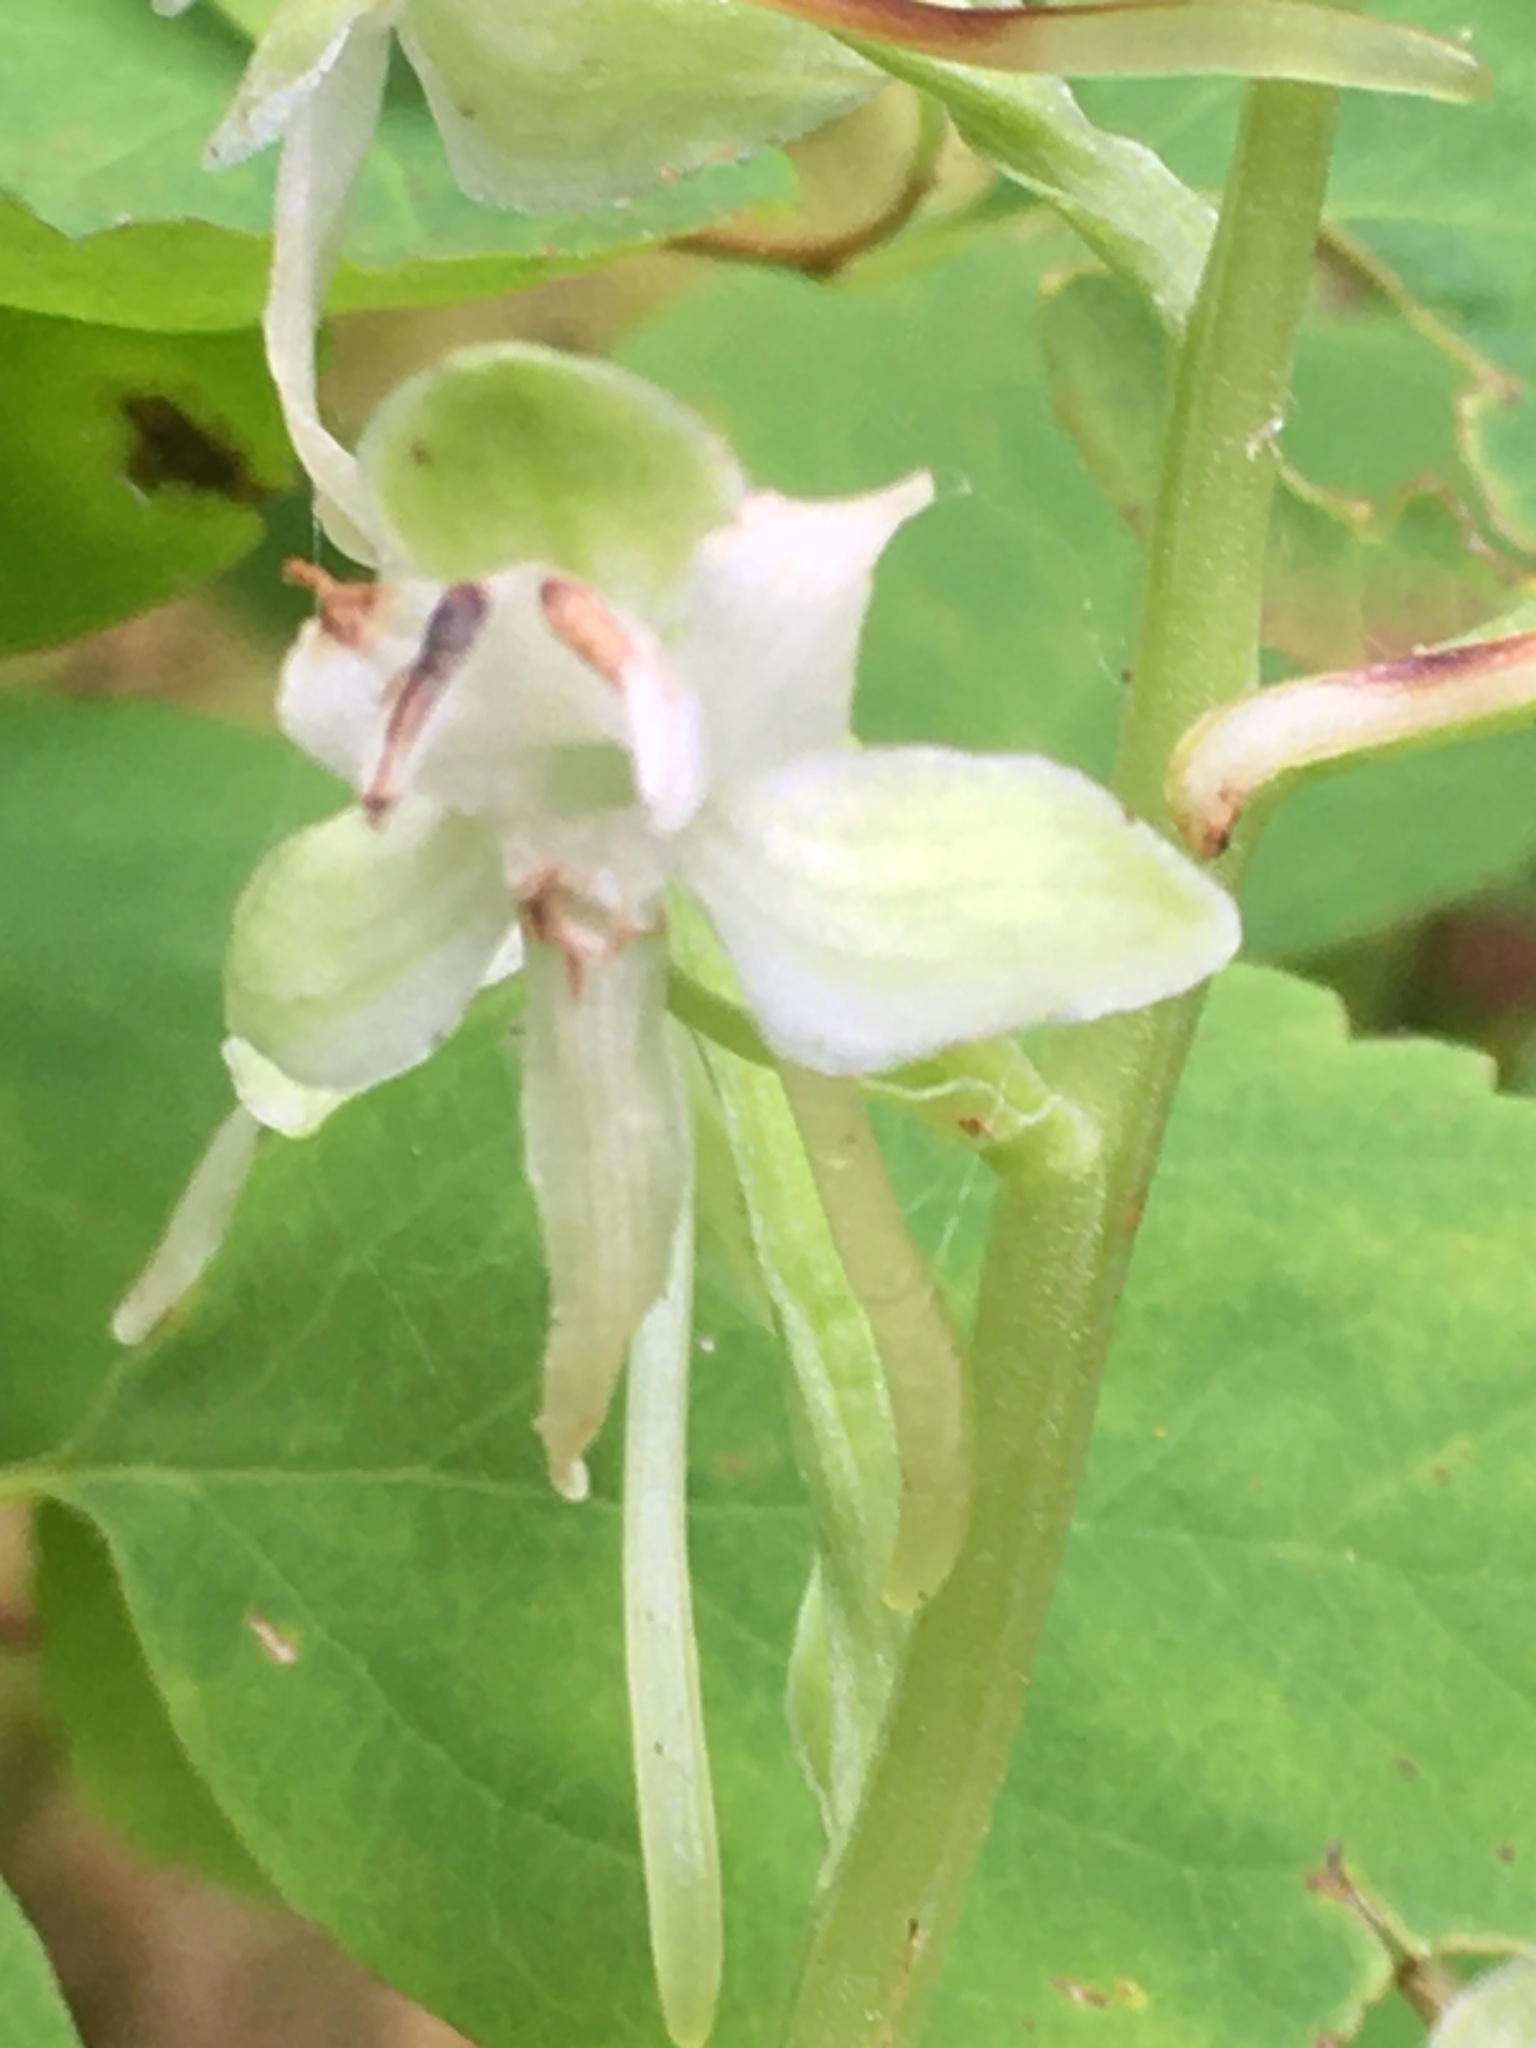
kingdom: Plantae
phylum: Tracheophyta
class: Liliopsida
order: Asparagales
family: Orchidaceae
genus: Platanthera
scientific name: Platanthera orbiculata
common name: Large round-leaved orchid
